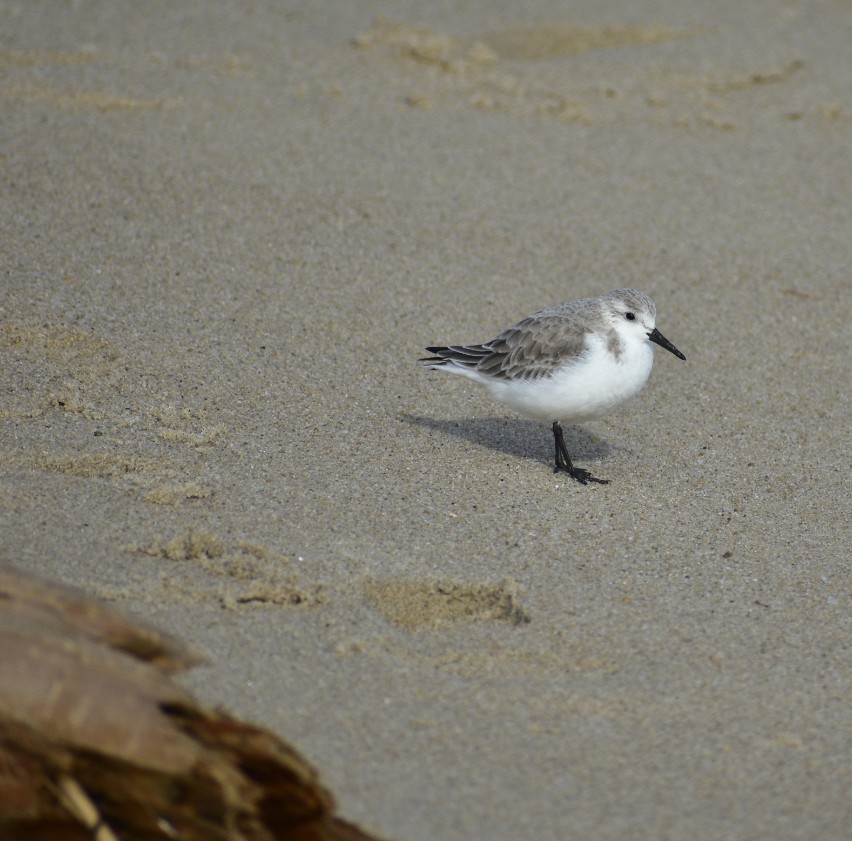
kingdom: Animalia
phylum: Chordata
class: Aves
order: Charadriiformes
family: Scolopacidae
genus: Calidris
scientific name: Calidris alba
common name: Sanderling
